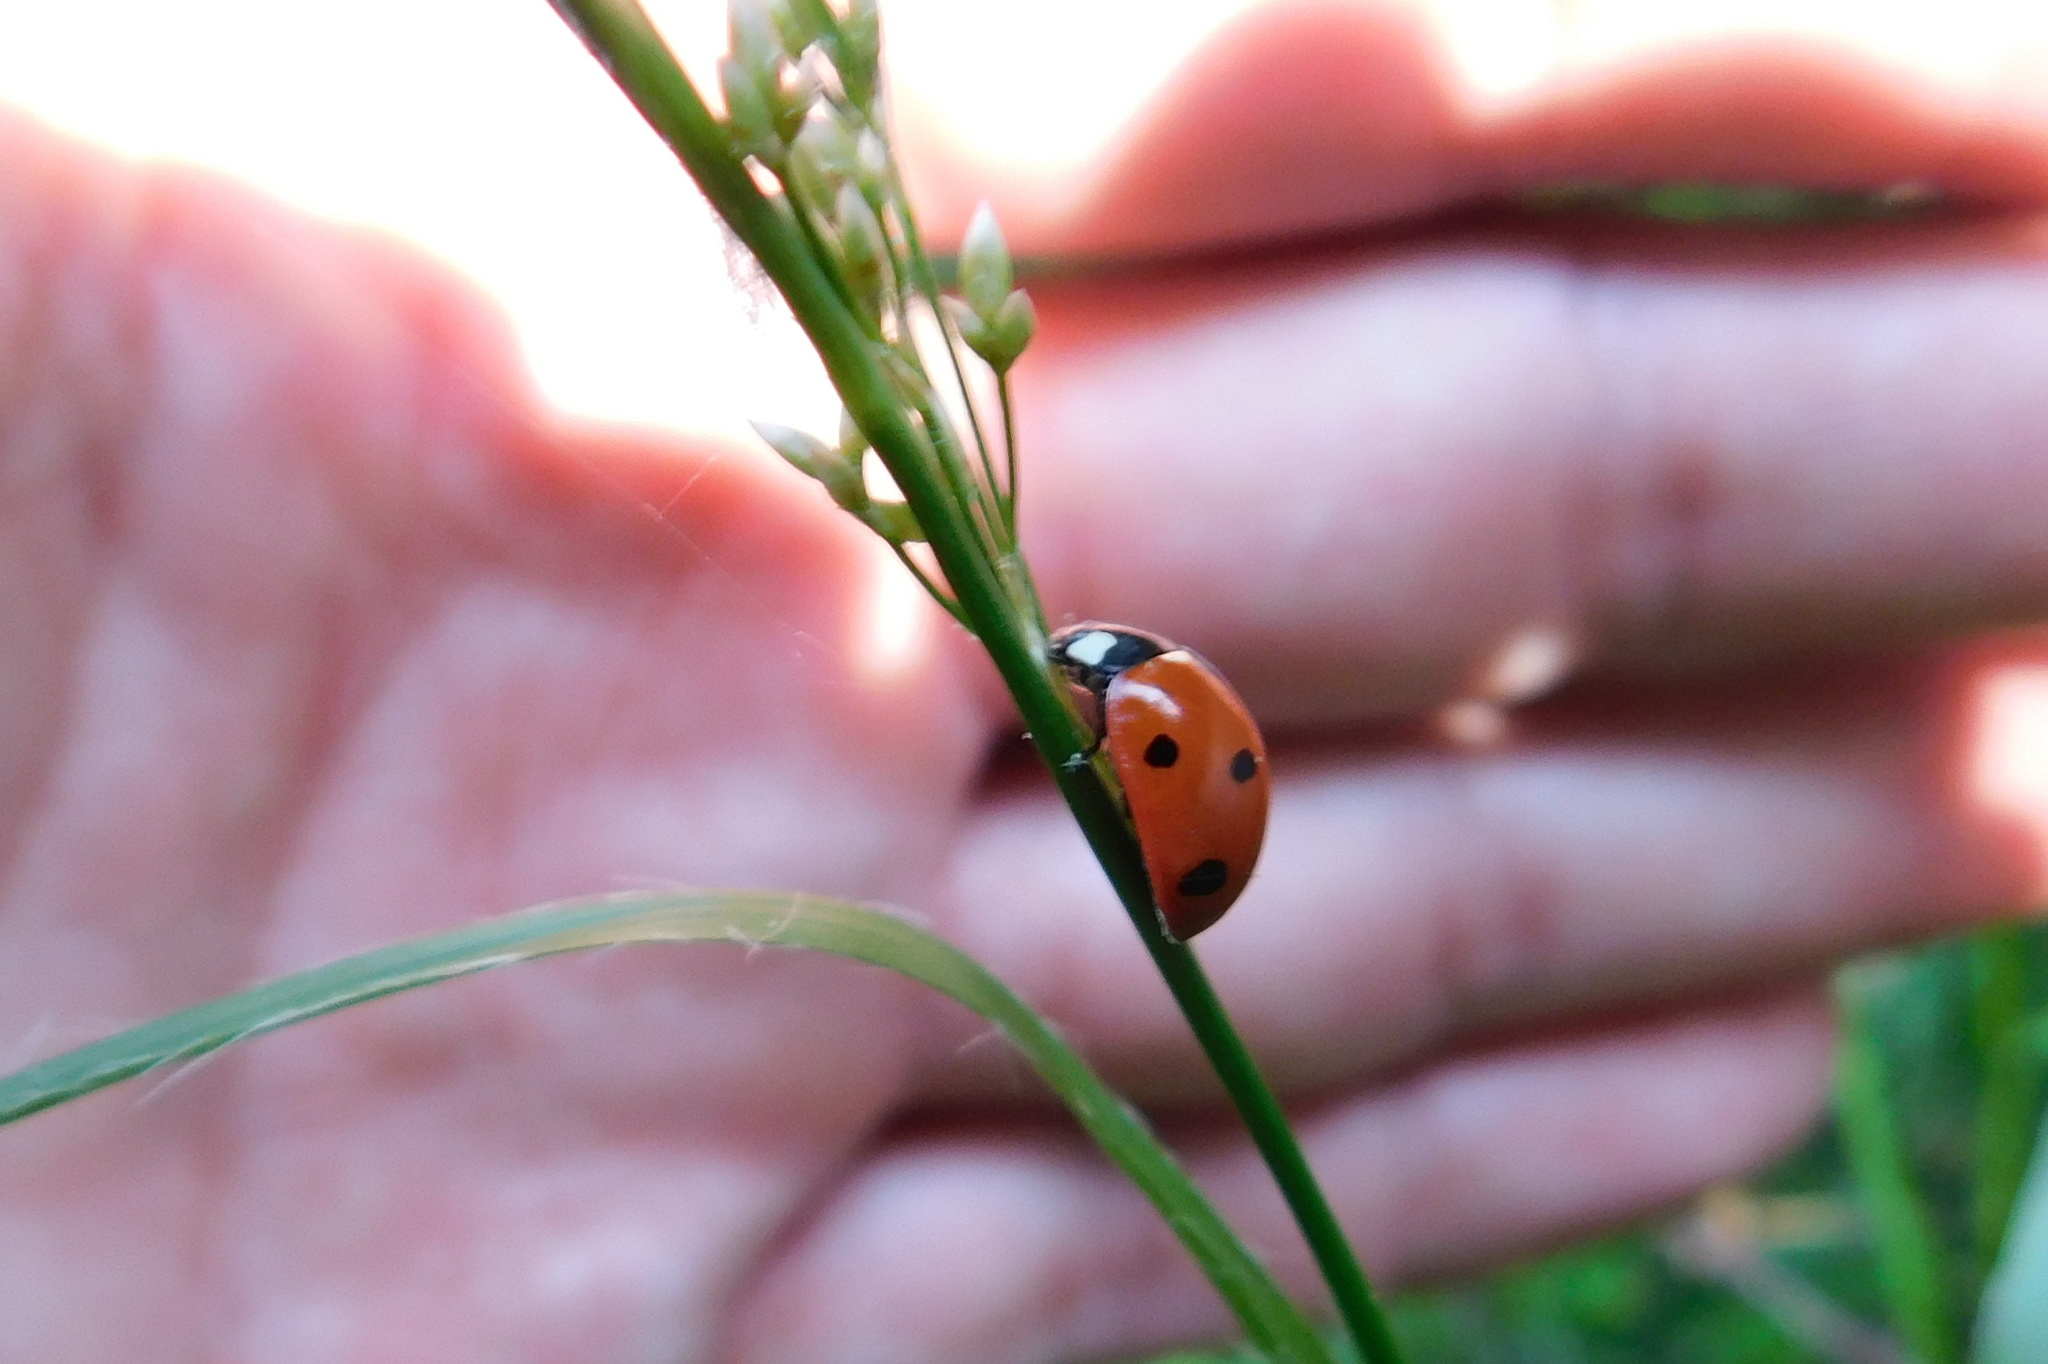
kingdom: Animalia
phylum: Arthropoda
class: Insecta
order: Coleoptera
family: Coccinellidae
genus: Coccinella
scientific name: Coccinella septempunctata
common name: Sevenspotted lady beetle
